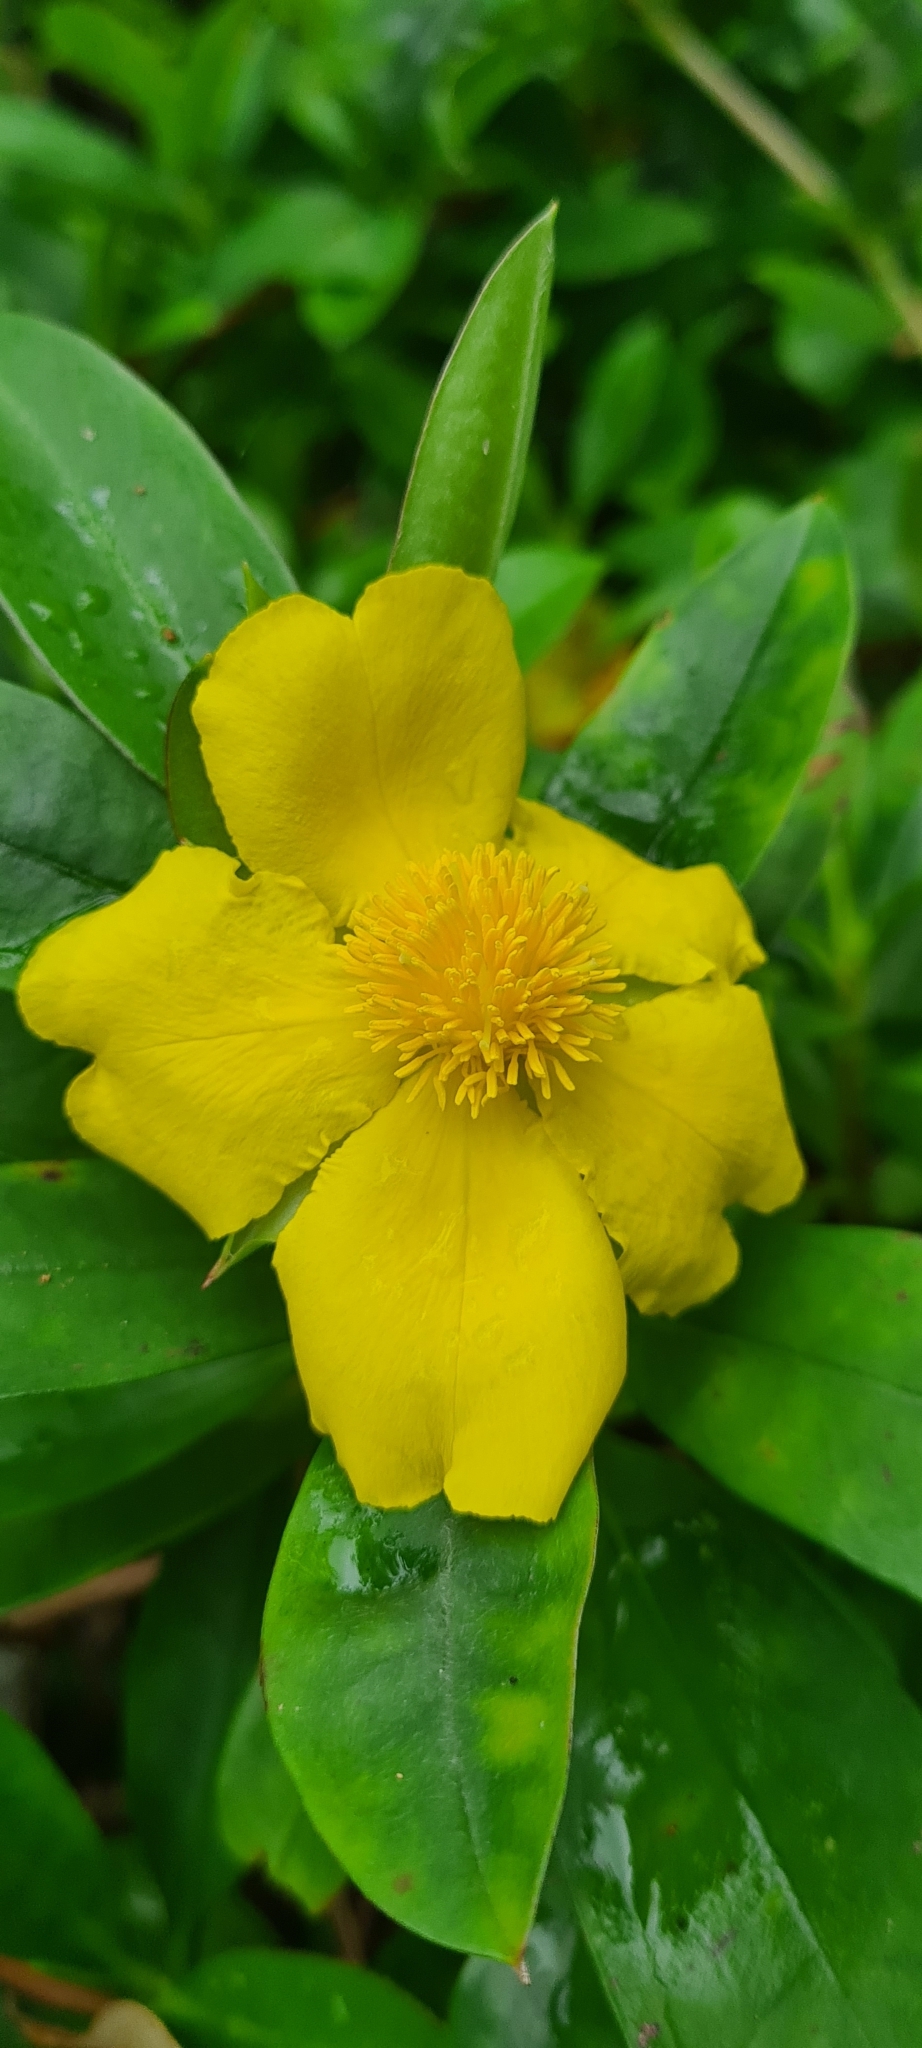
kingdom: Plantae
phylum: Tracheophyta
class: Magnoliopsida
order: Dilleniales
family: Dilleniaceae
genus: Hibbertia
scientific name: Hibbertia scandens
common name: Climbing guinea-flower
